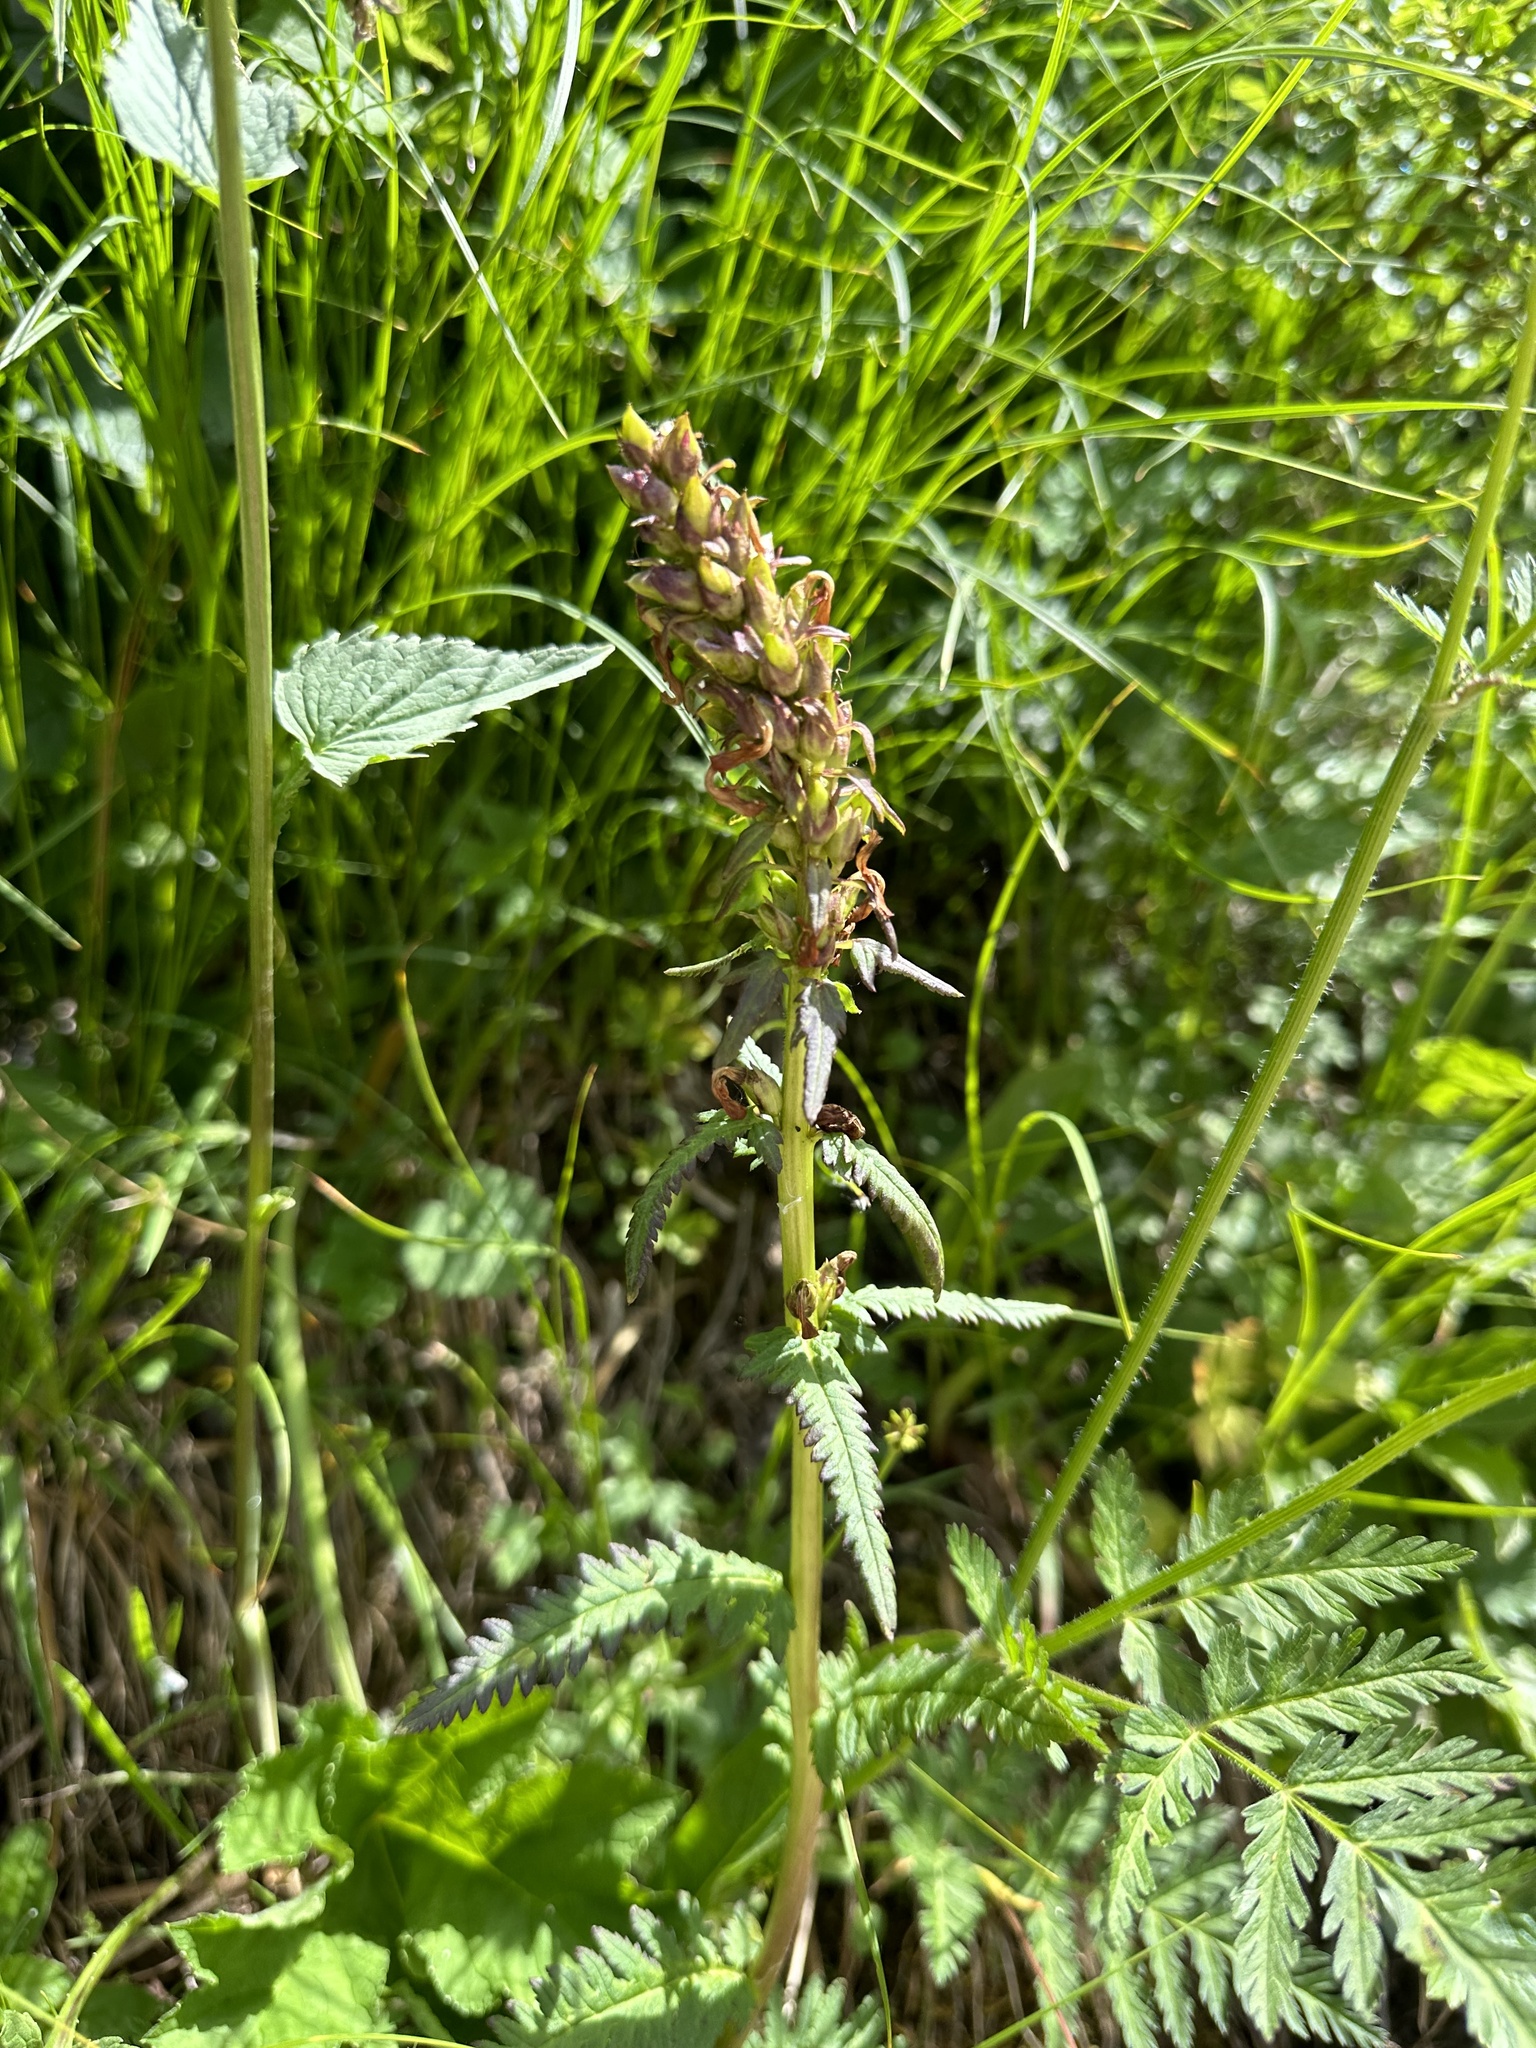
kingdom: Plantae
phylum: Tracheophyta
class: Magnoliopsida
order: Lamiales
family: Orobanchaceae
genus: Pedicularis
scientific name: Pedicularis recutita
